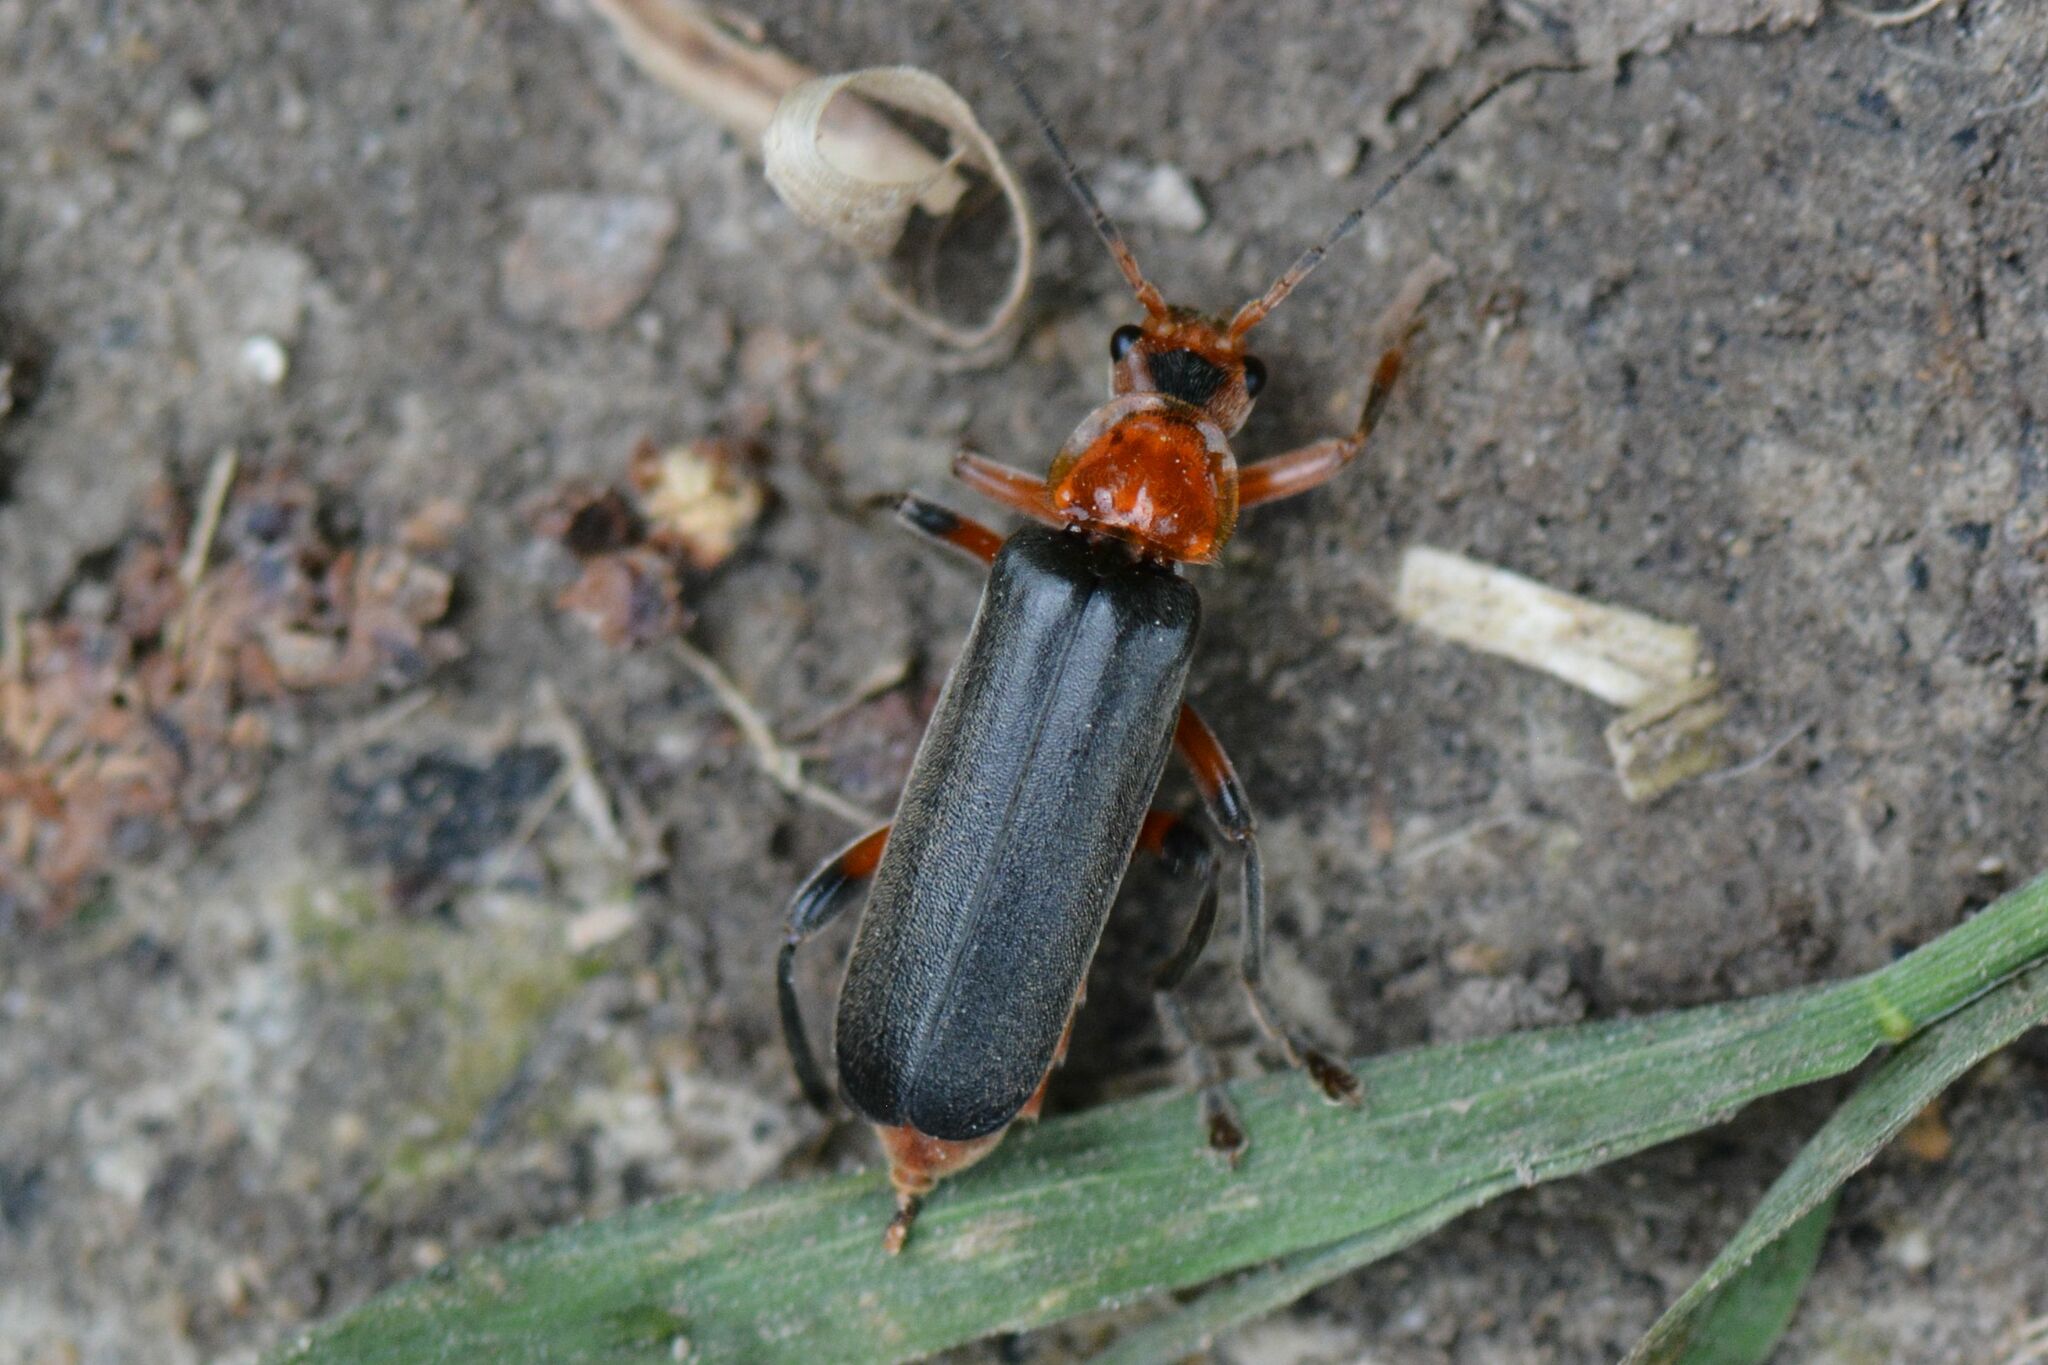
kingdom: Animalia
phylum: Arthropoda
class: Insecta
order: Coleoptera
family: Cantharidae
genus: Cantharis
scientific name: Cantharis livida
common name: Livid soldier beetle
